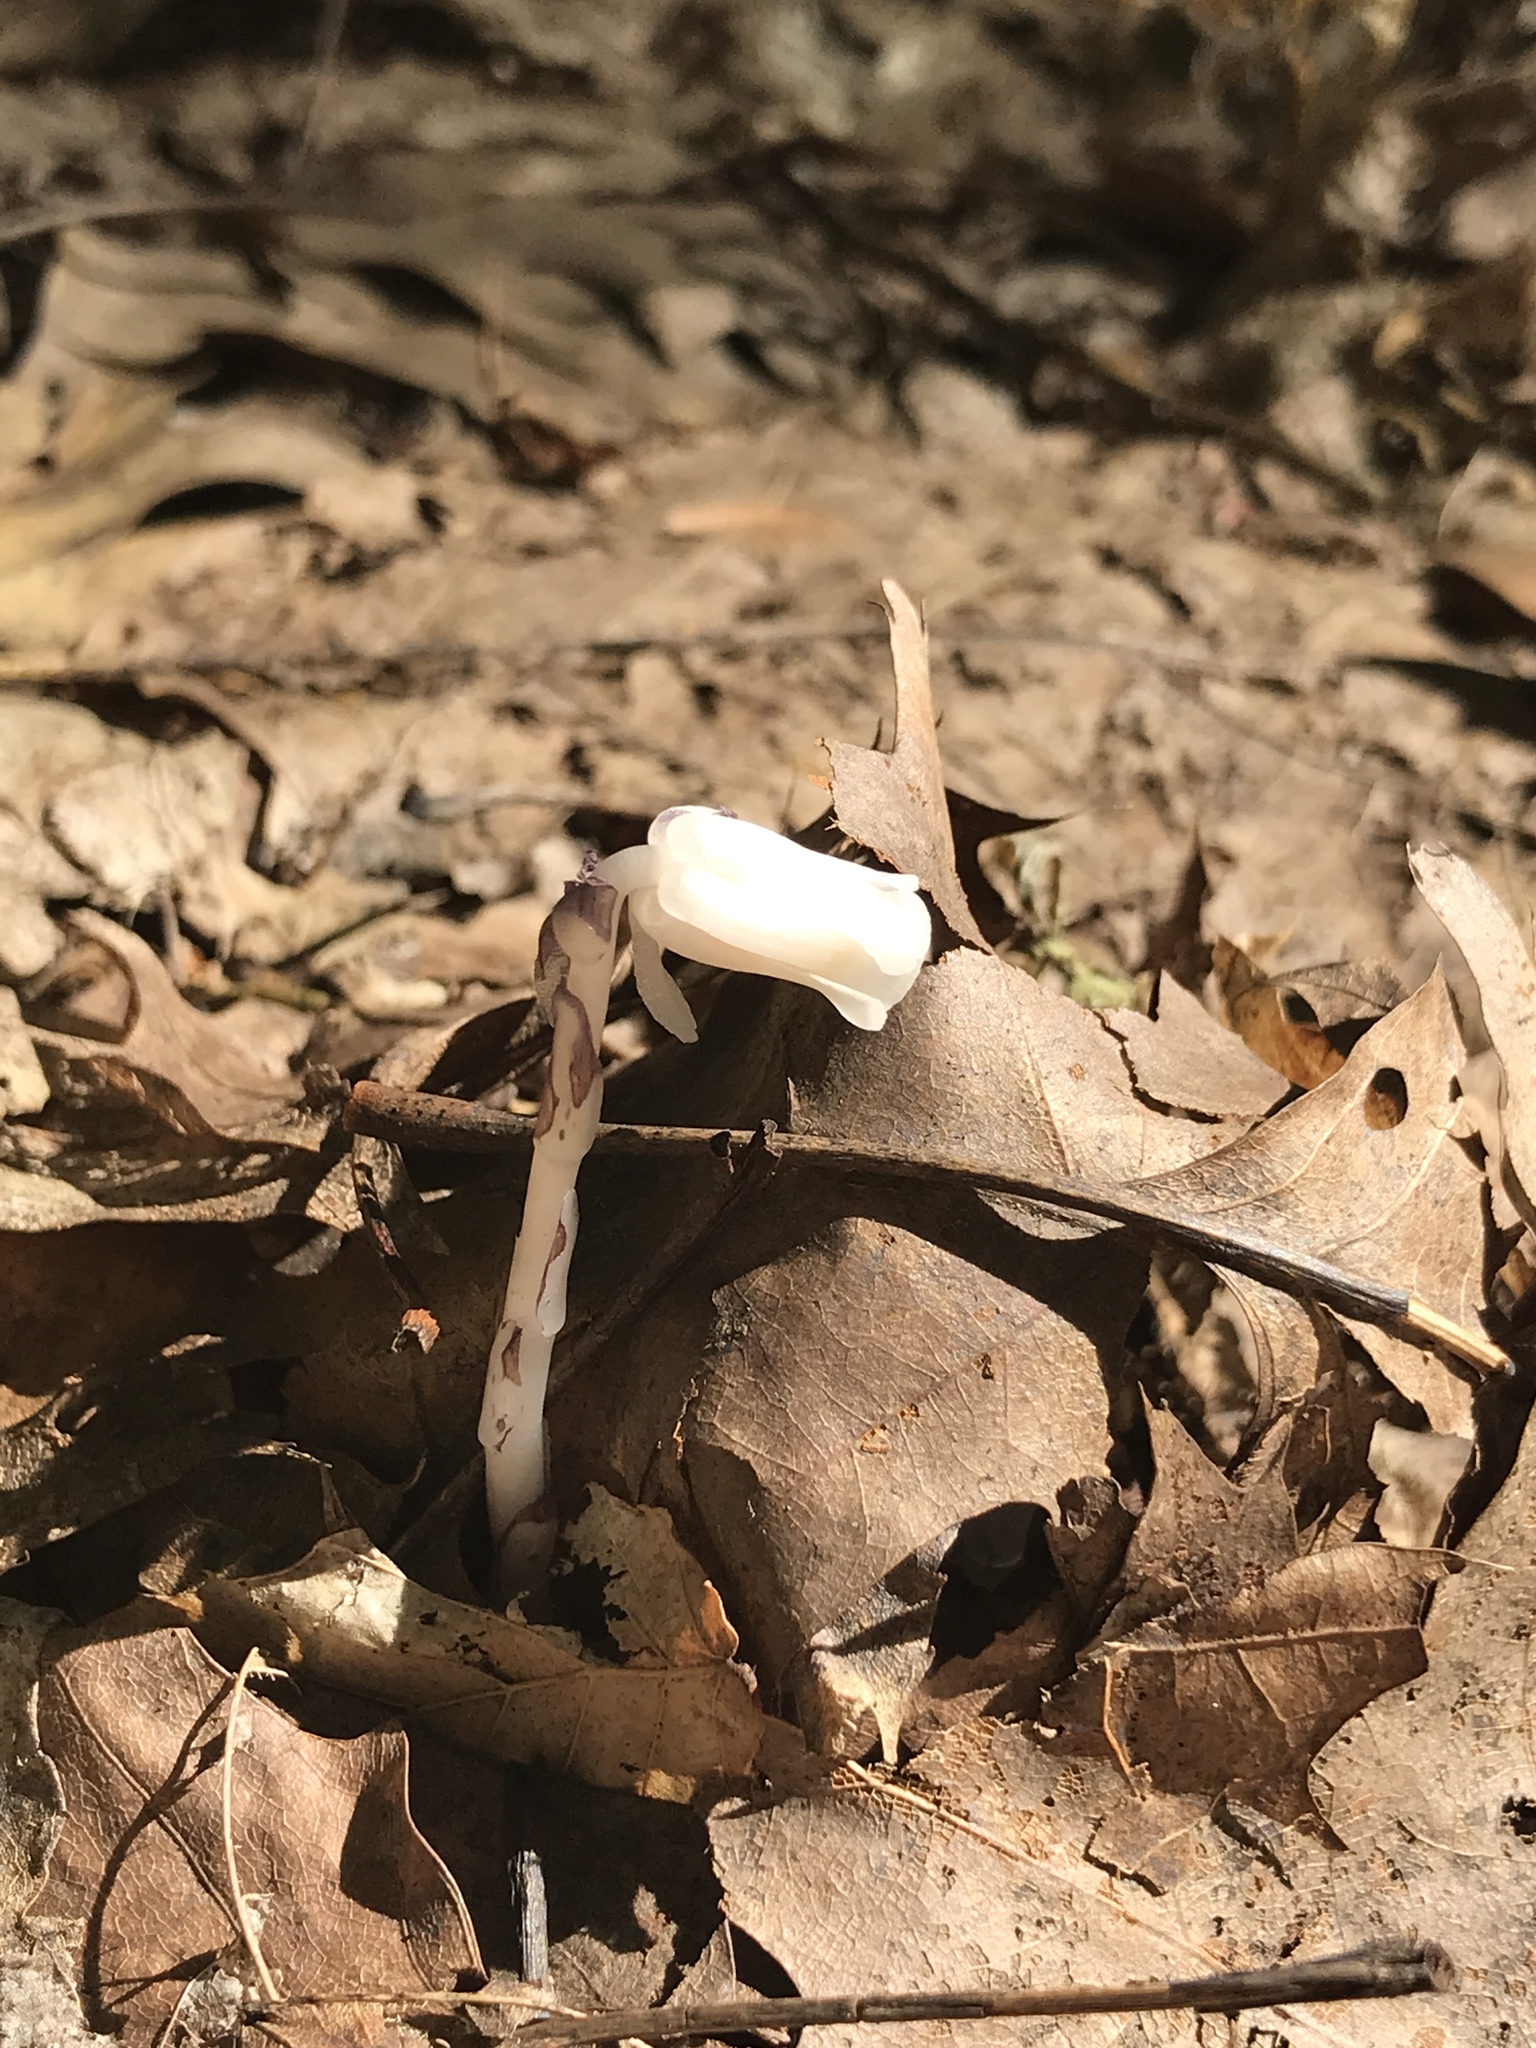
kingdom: Plantae
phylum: Tracheophyta
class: Magnoliopsida
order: Ericales
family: Ericaceae
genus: Monotropa
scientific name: Monotropa uniflora
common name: Convulsion root
